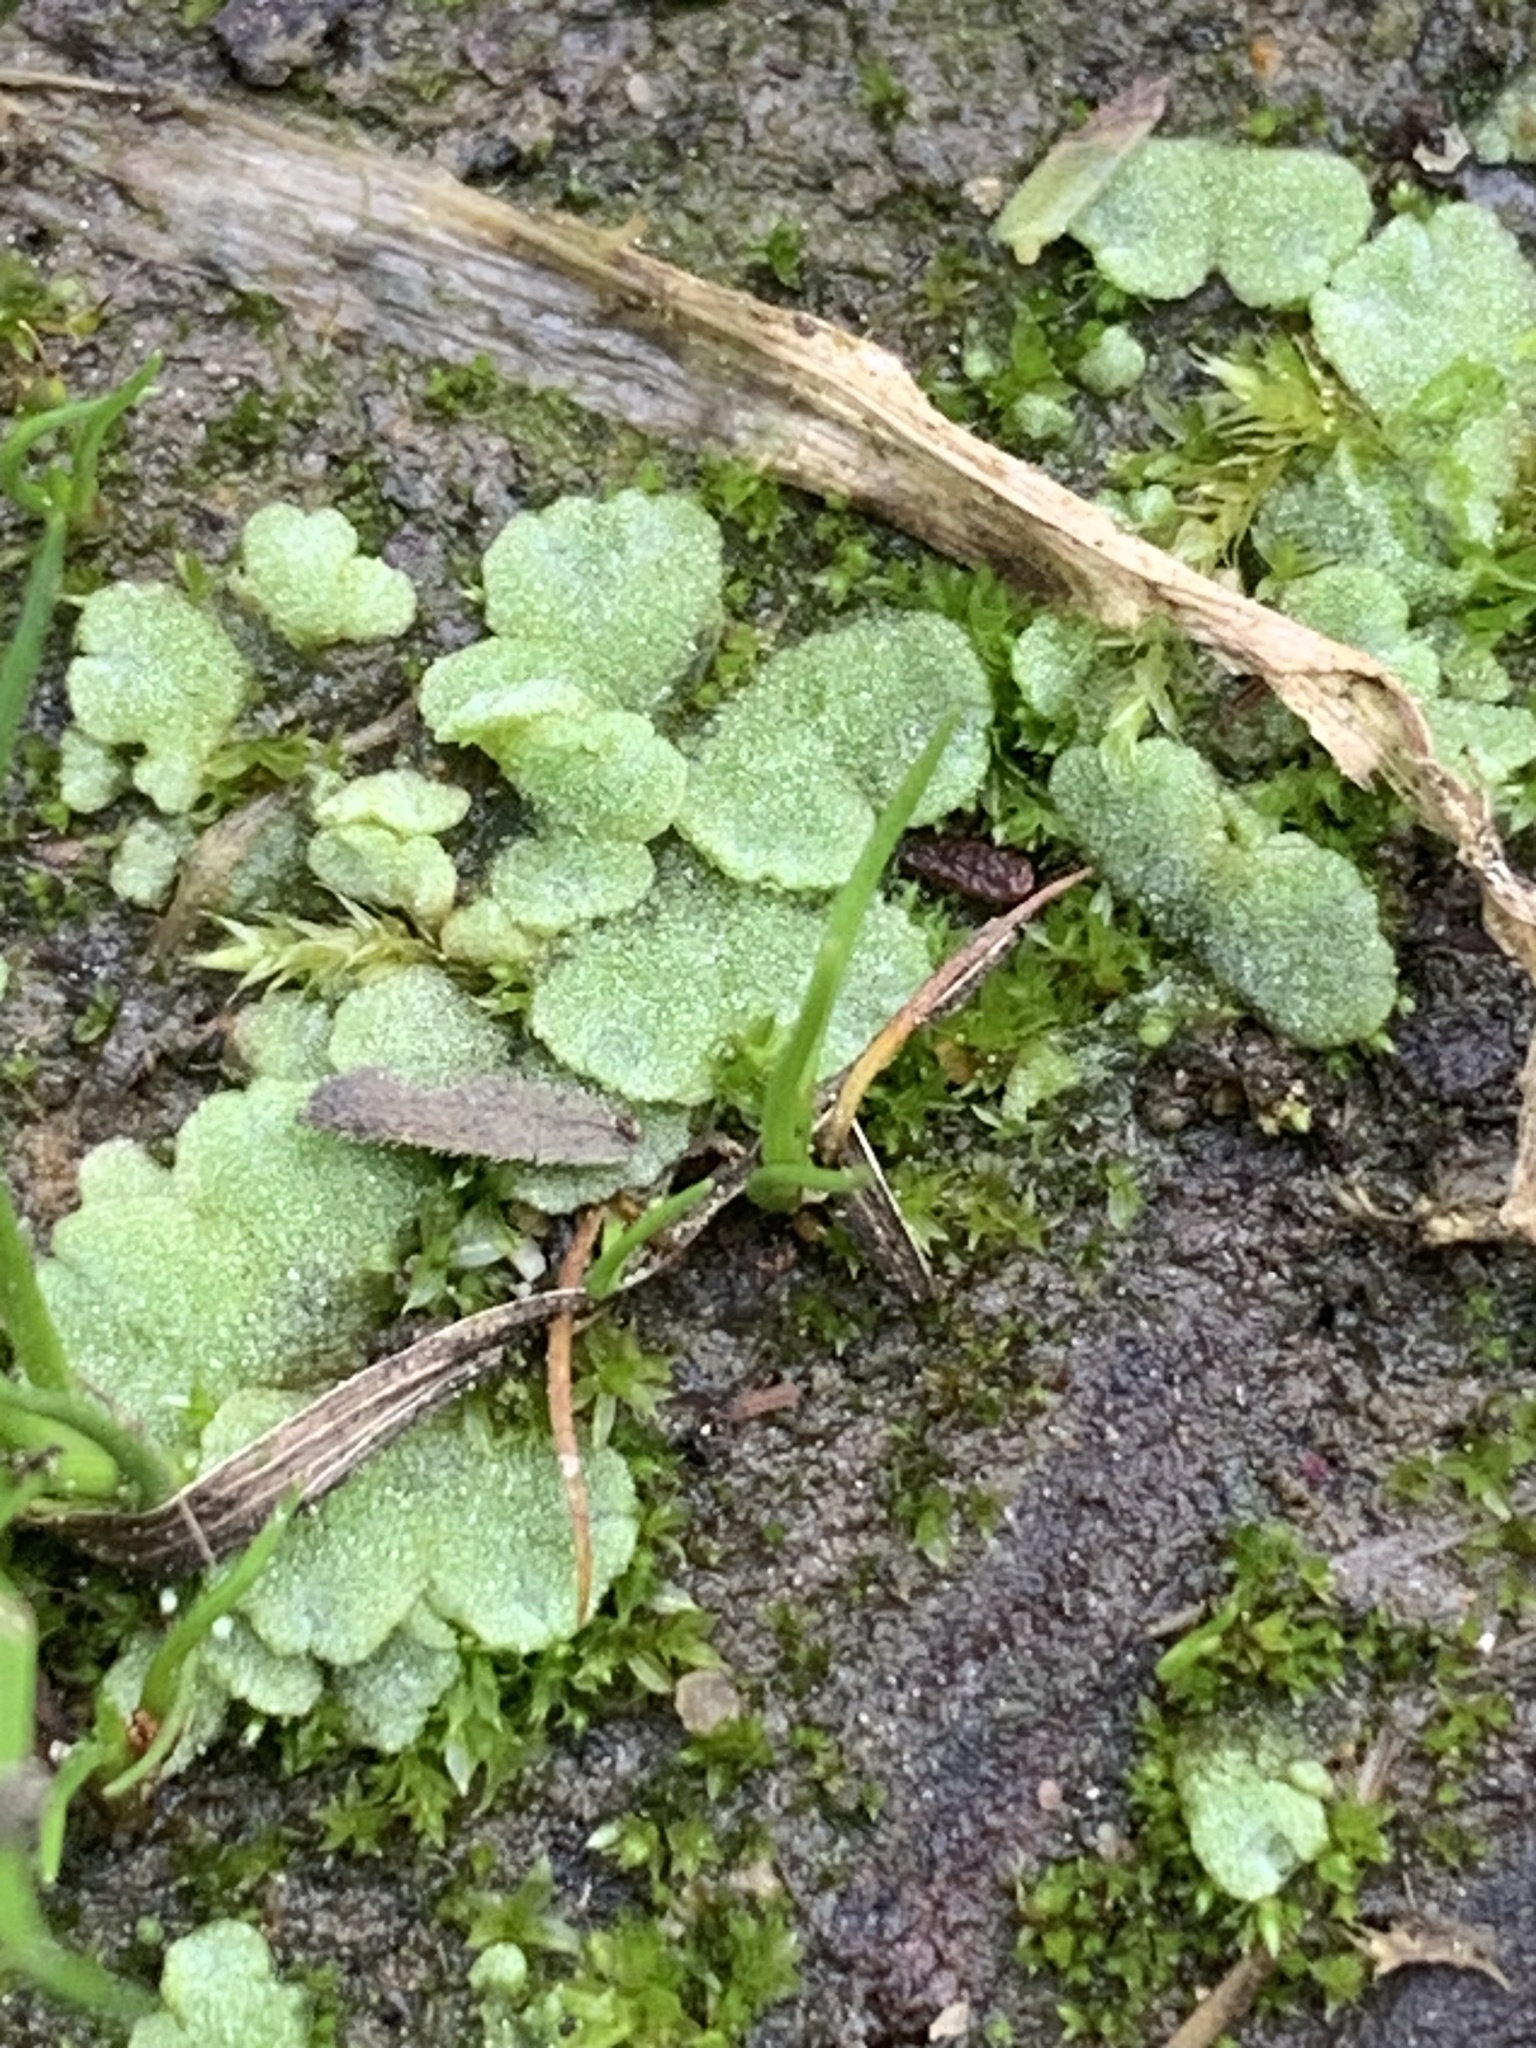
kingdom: Plantae
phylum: Marchantiophyta
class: Marchantiopsida
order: Marchantiales
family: Ricciaceae
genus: Riccia
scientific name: Riccia crystallina
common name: Blue crystalwort
